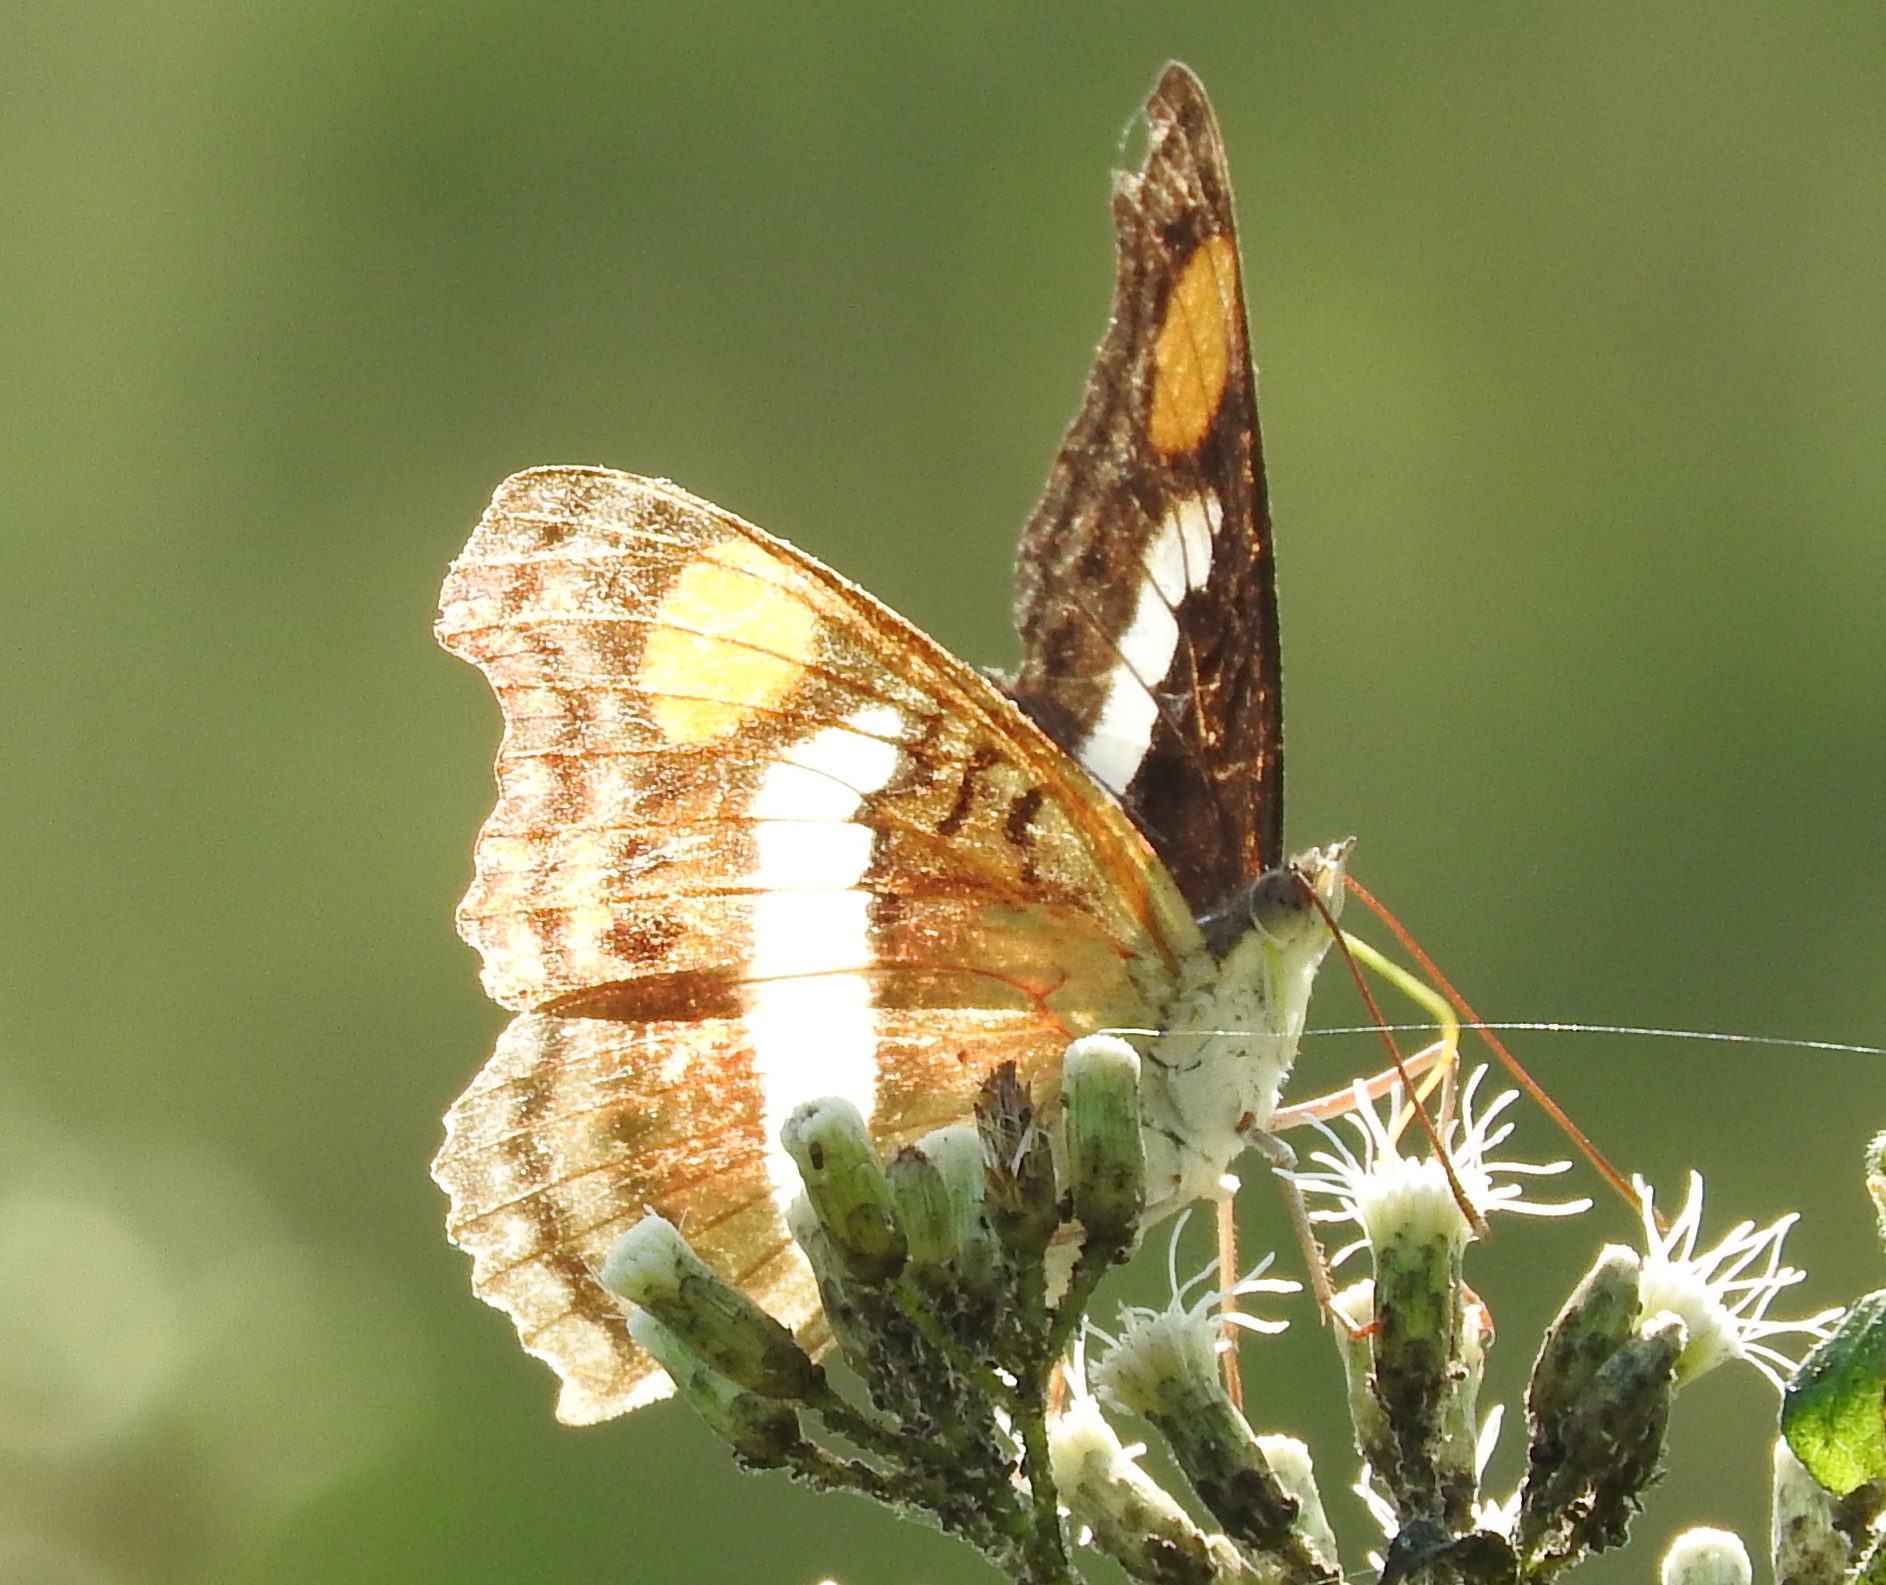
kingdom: Animalia
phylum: Arthropoda
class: Insecta
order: Lepidoptera
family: Nymphalidae
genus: Doxocopa
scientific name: Doxocopa
